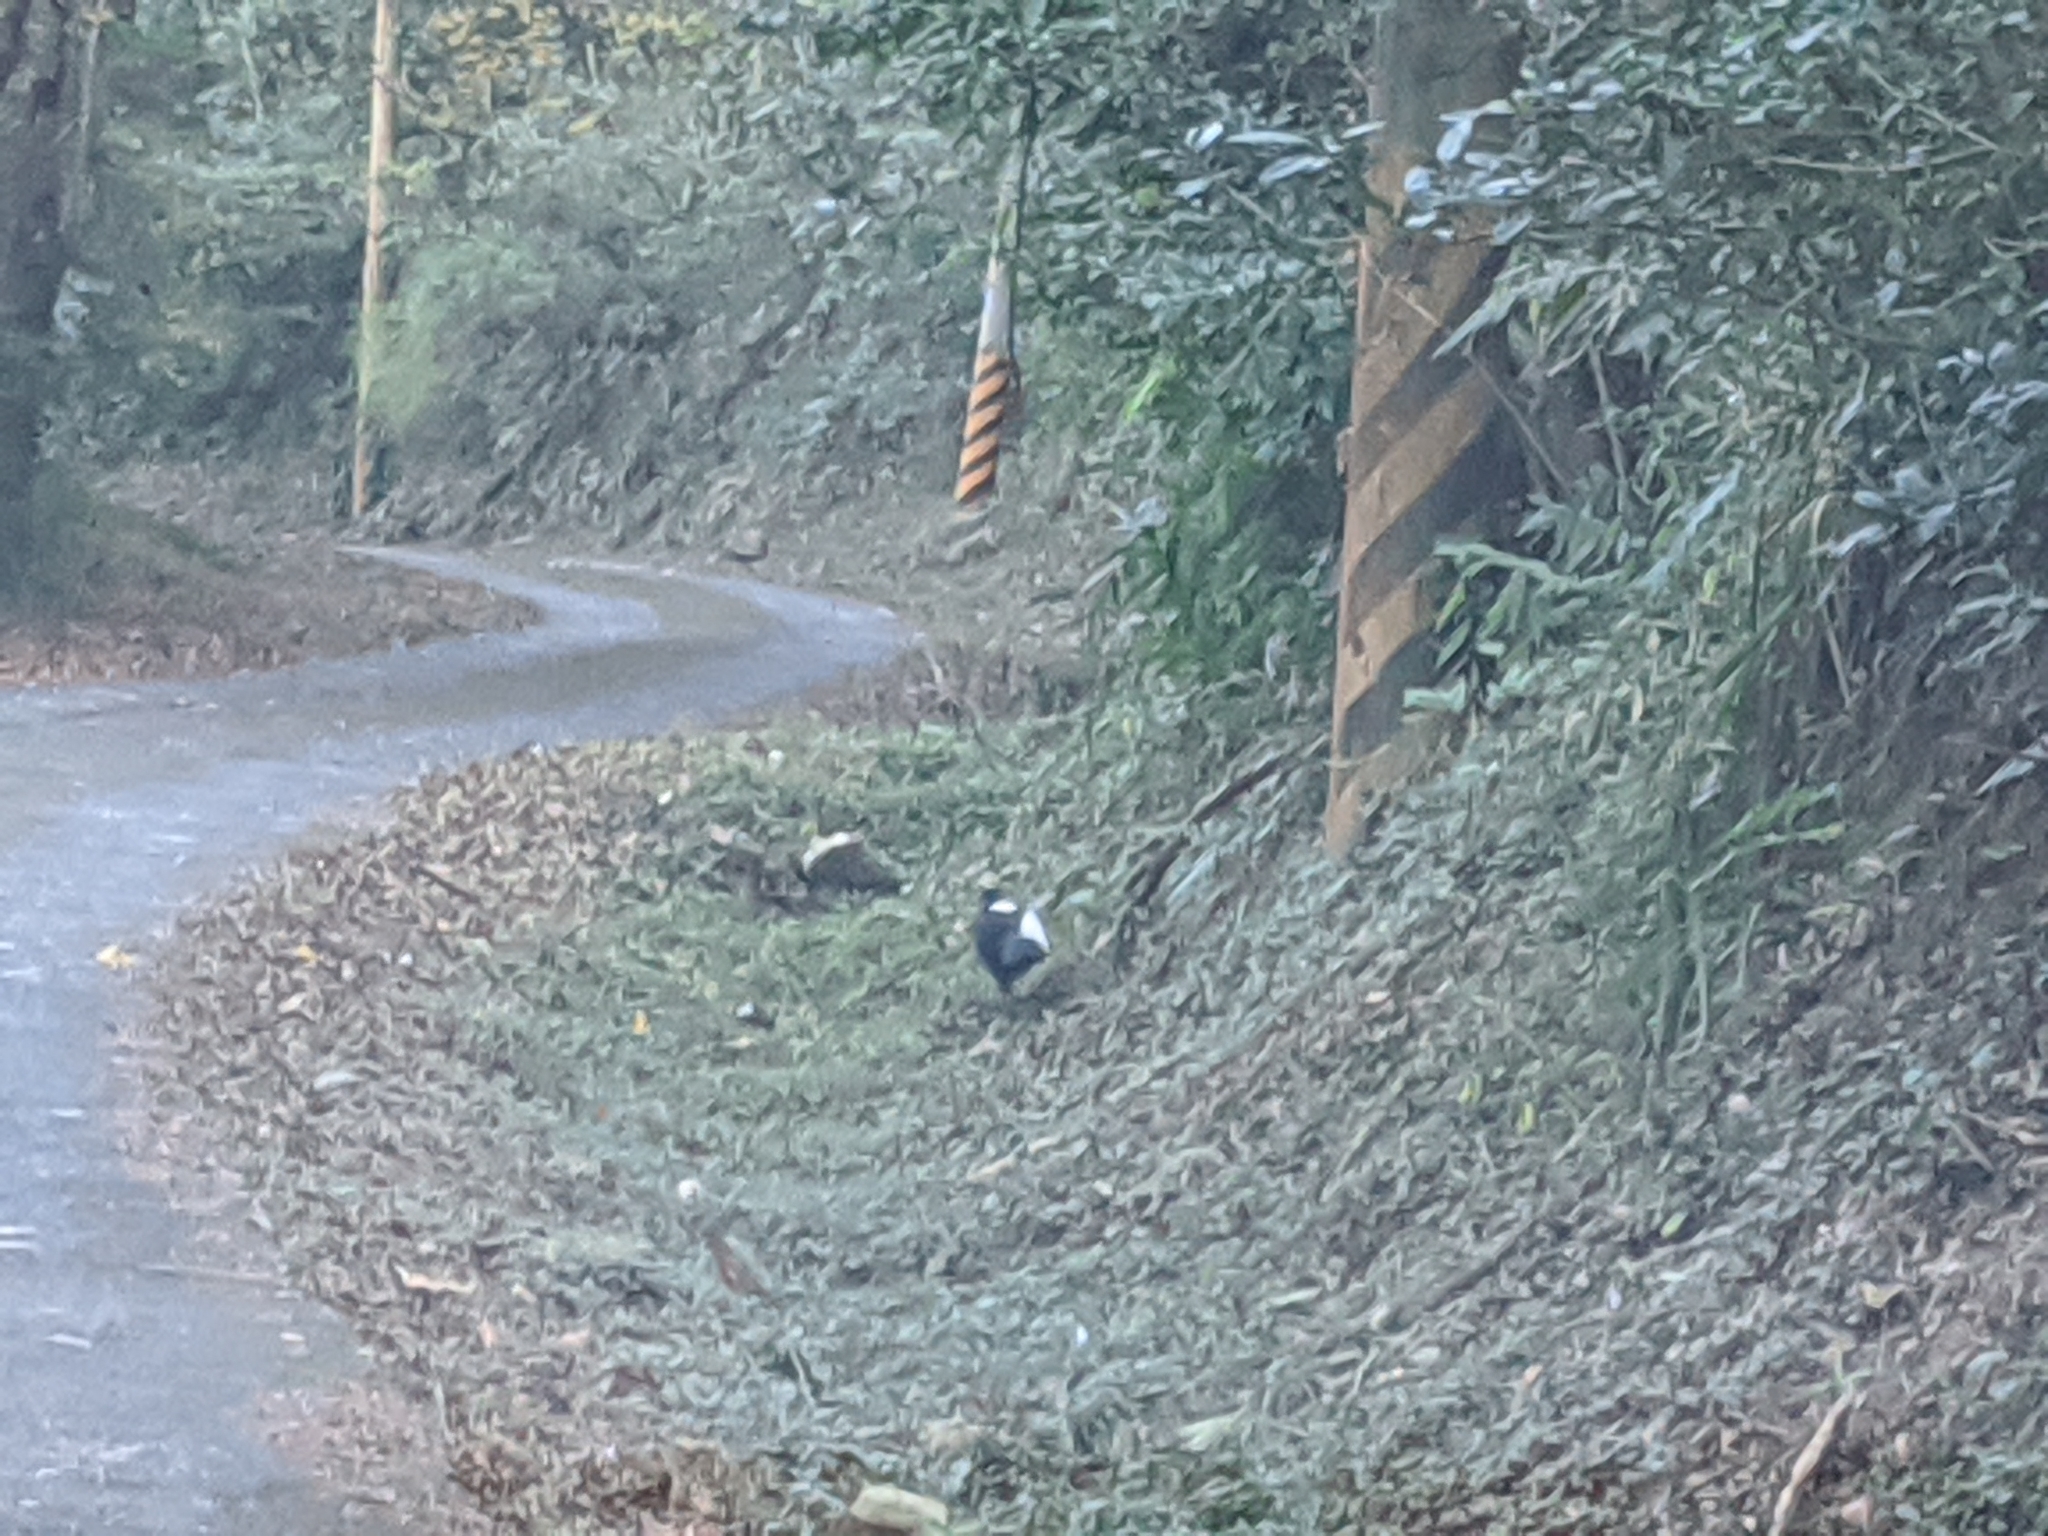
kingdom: Animalia
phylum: Chordata
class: Aves
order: Galliformes
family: Phasianidae
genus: Lophura
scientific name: Lophura swinhoii
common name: Swinhoe's pheasant
